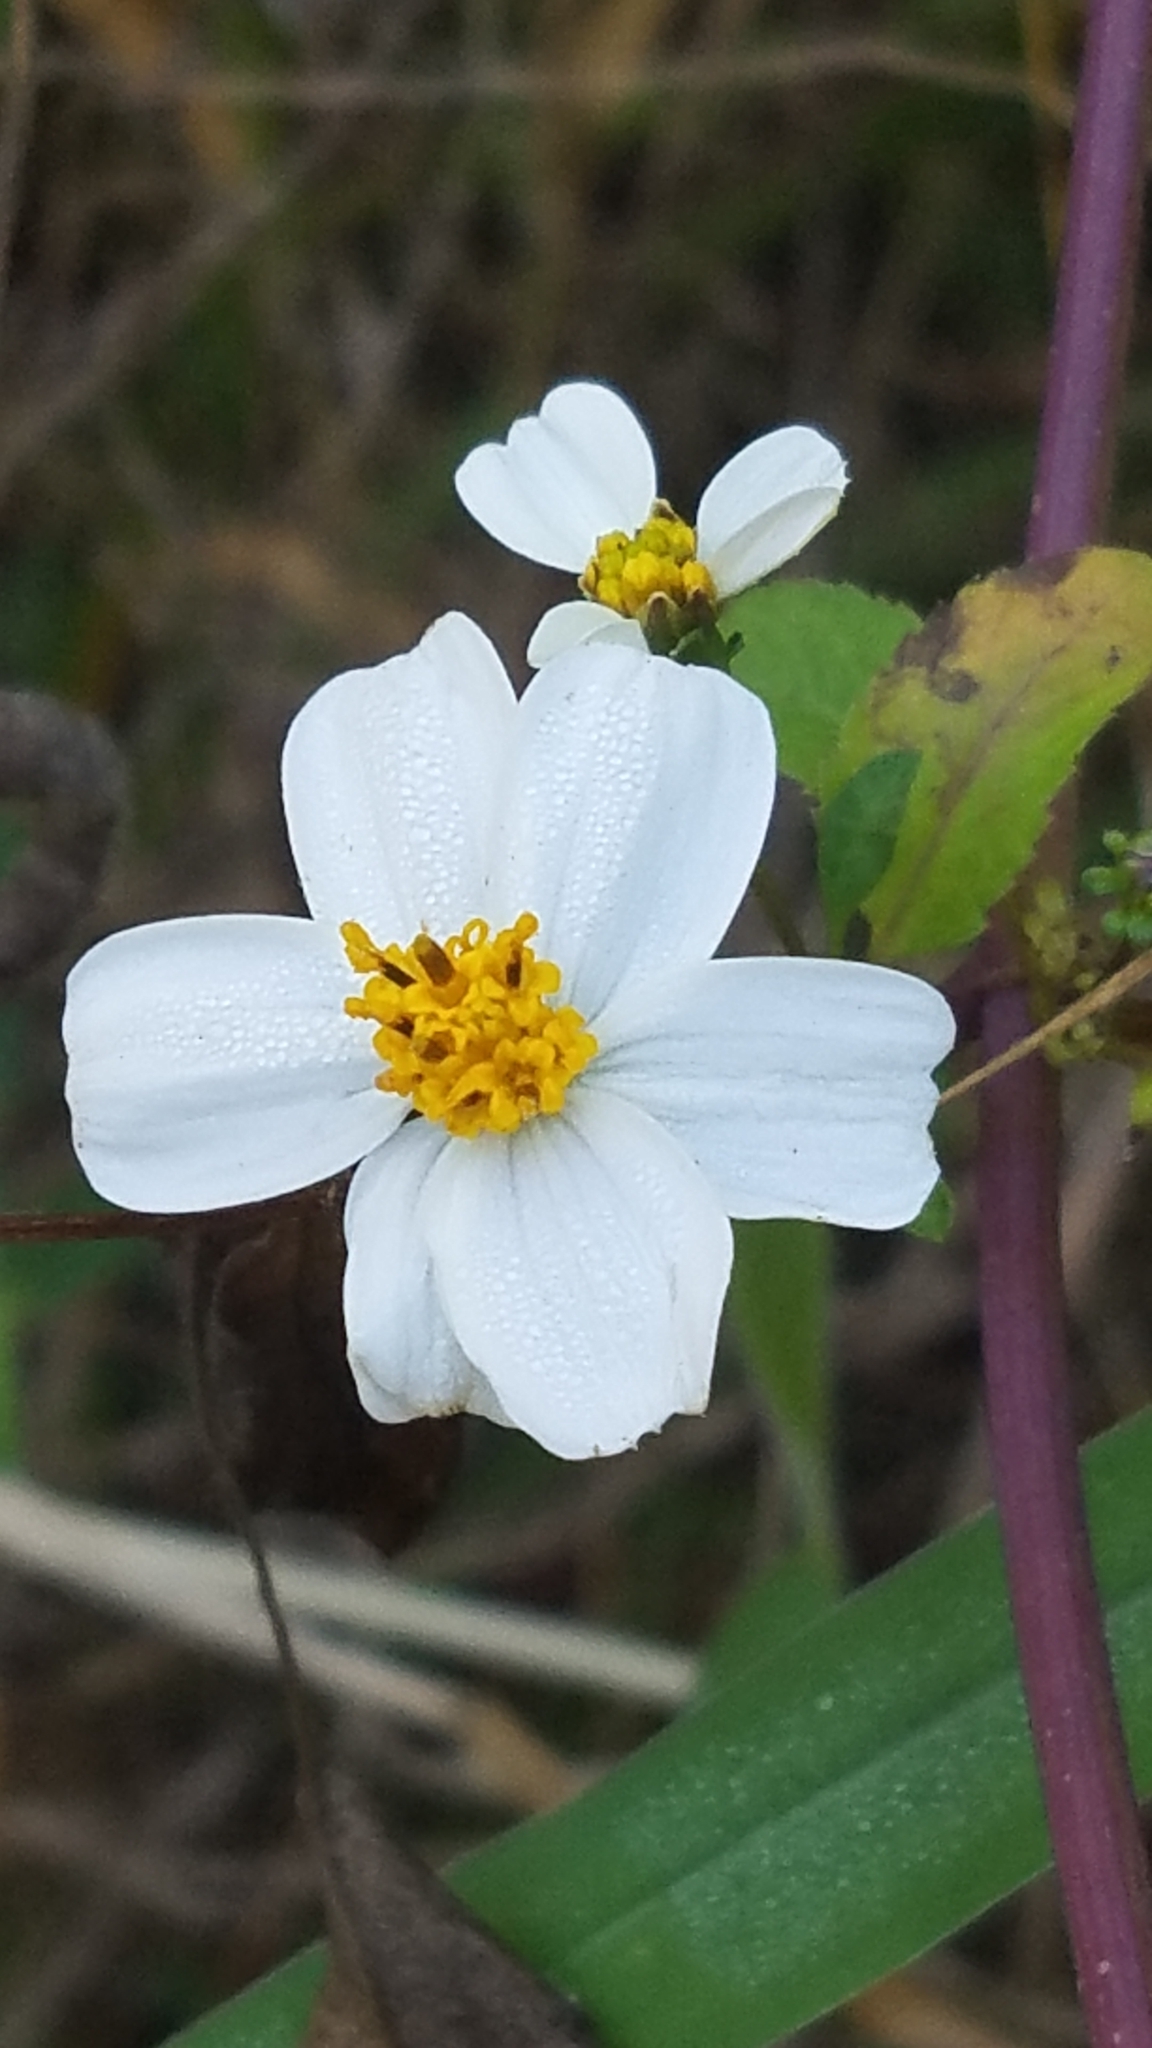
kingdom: Plantae
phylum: Tracheophyta
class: Magnoliopsida
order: Asterales
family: Asteraceae
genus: Bidens
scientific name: Bidens alba
